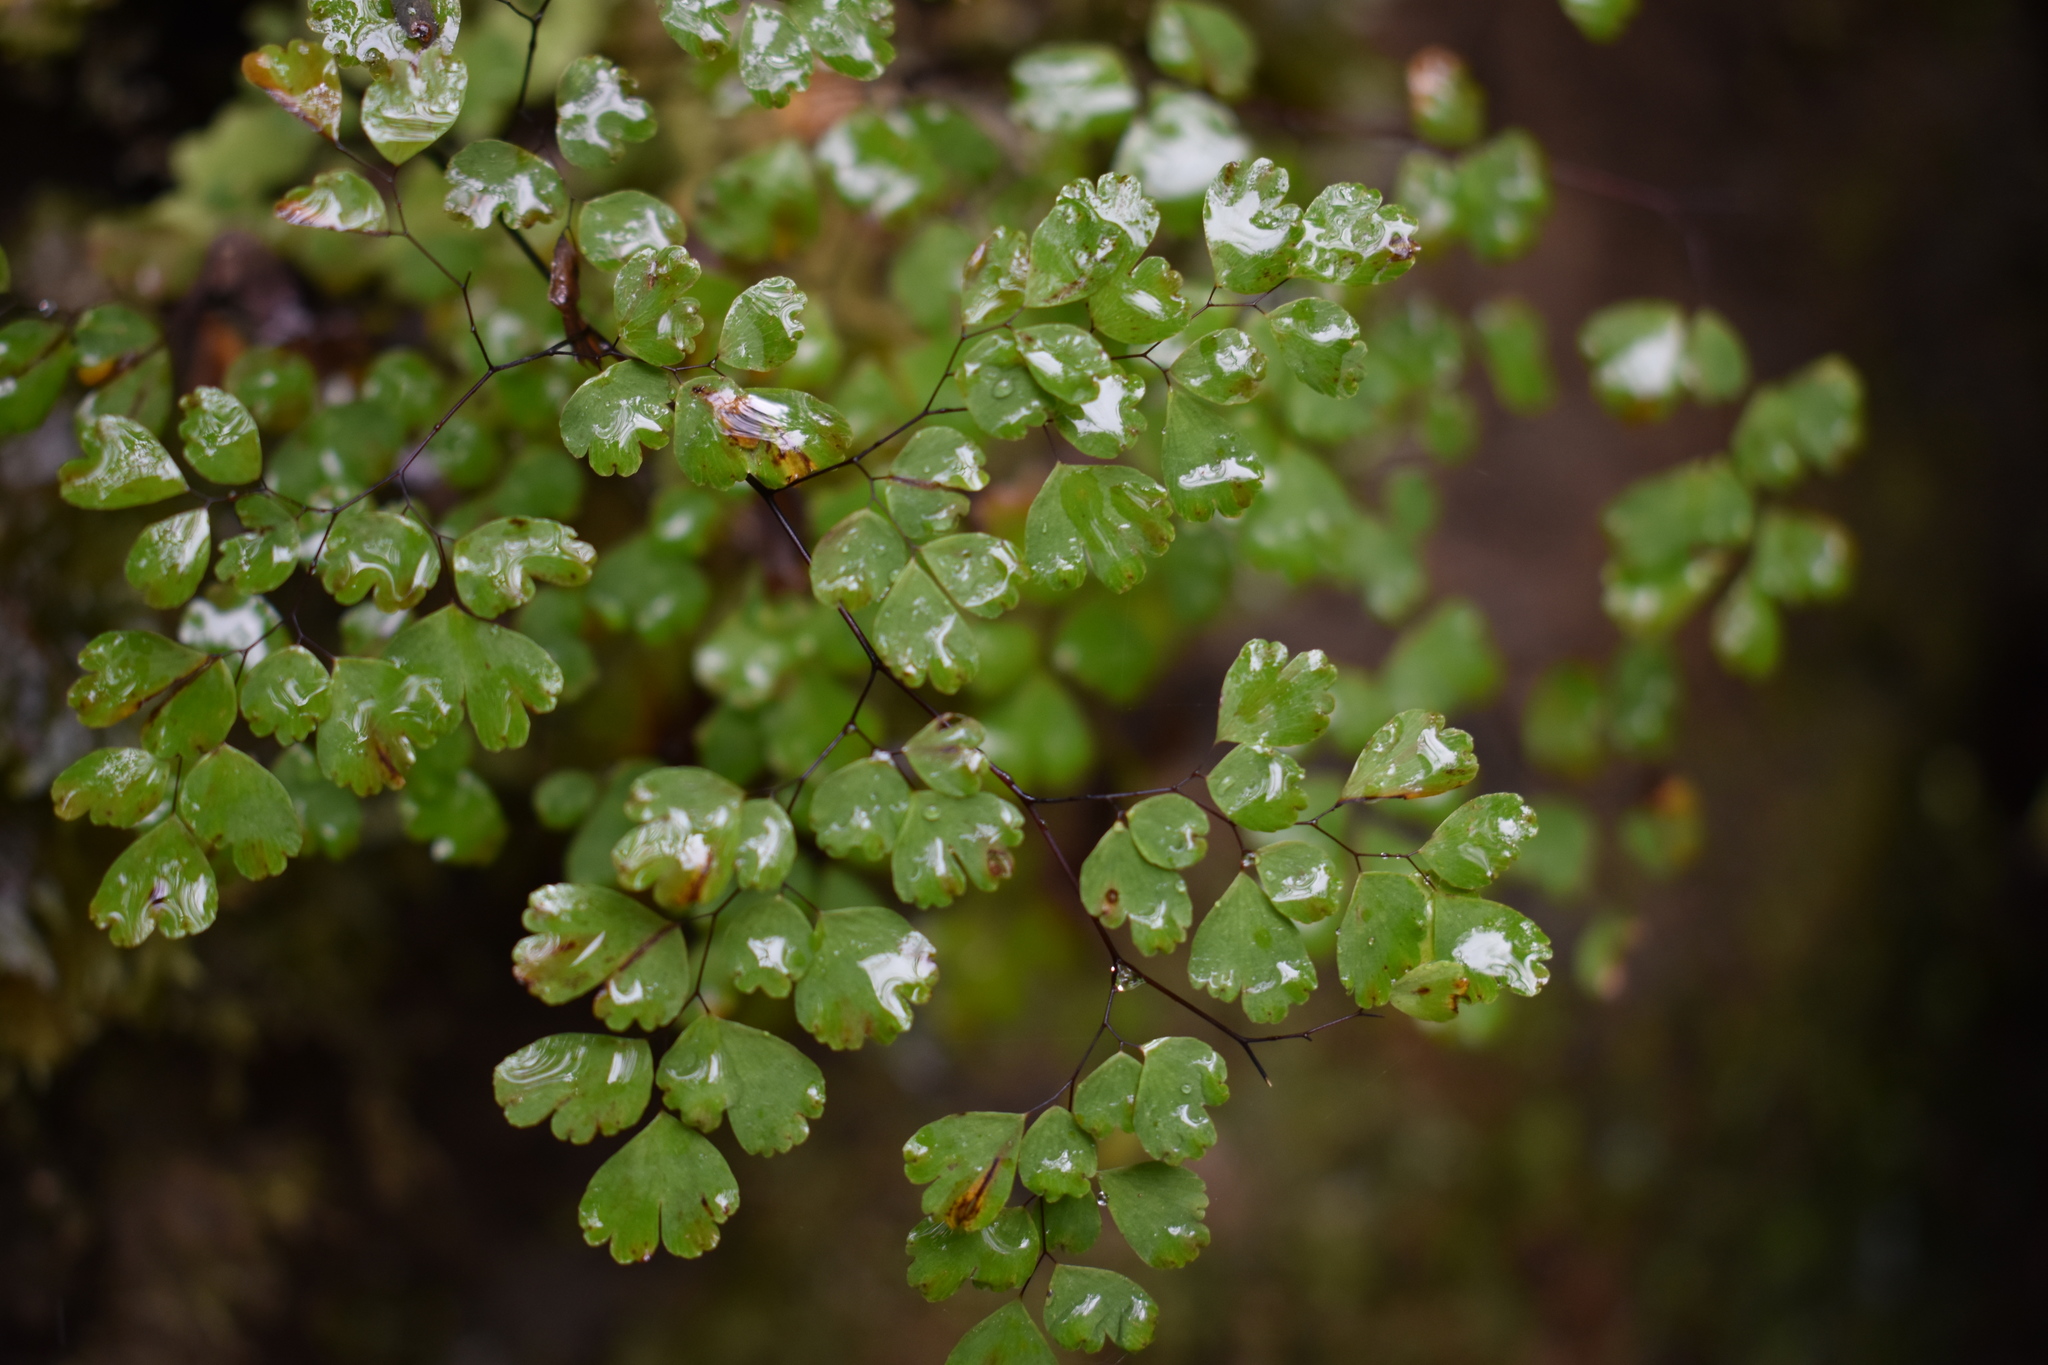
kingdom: Plantae
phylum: Tracheophyta
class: Polypodiopsida
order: Polypodiales
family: Pteridaceae
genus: Adiantum
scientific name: Adiantum raddianum
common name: Delta maidenhair fern
